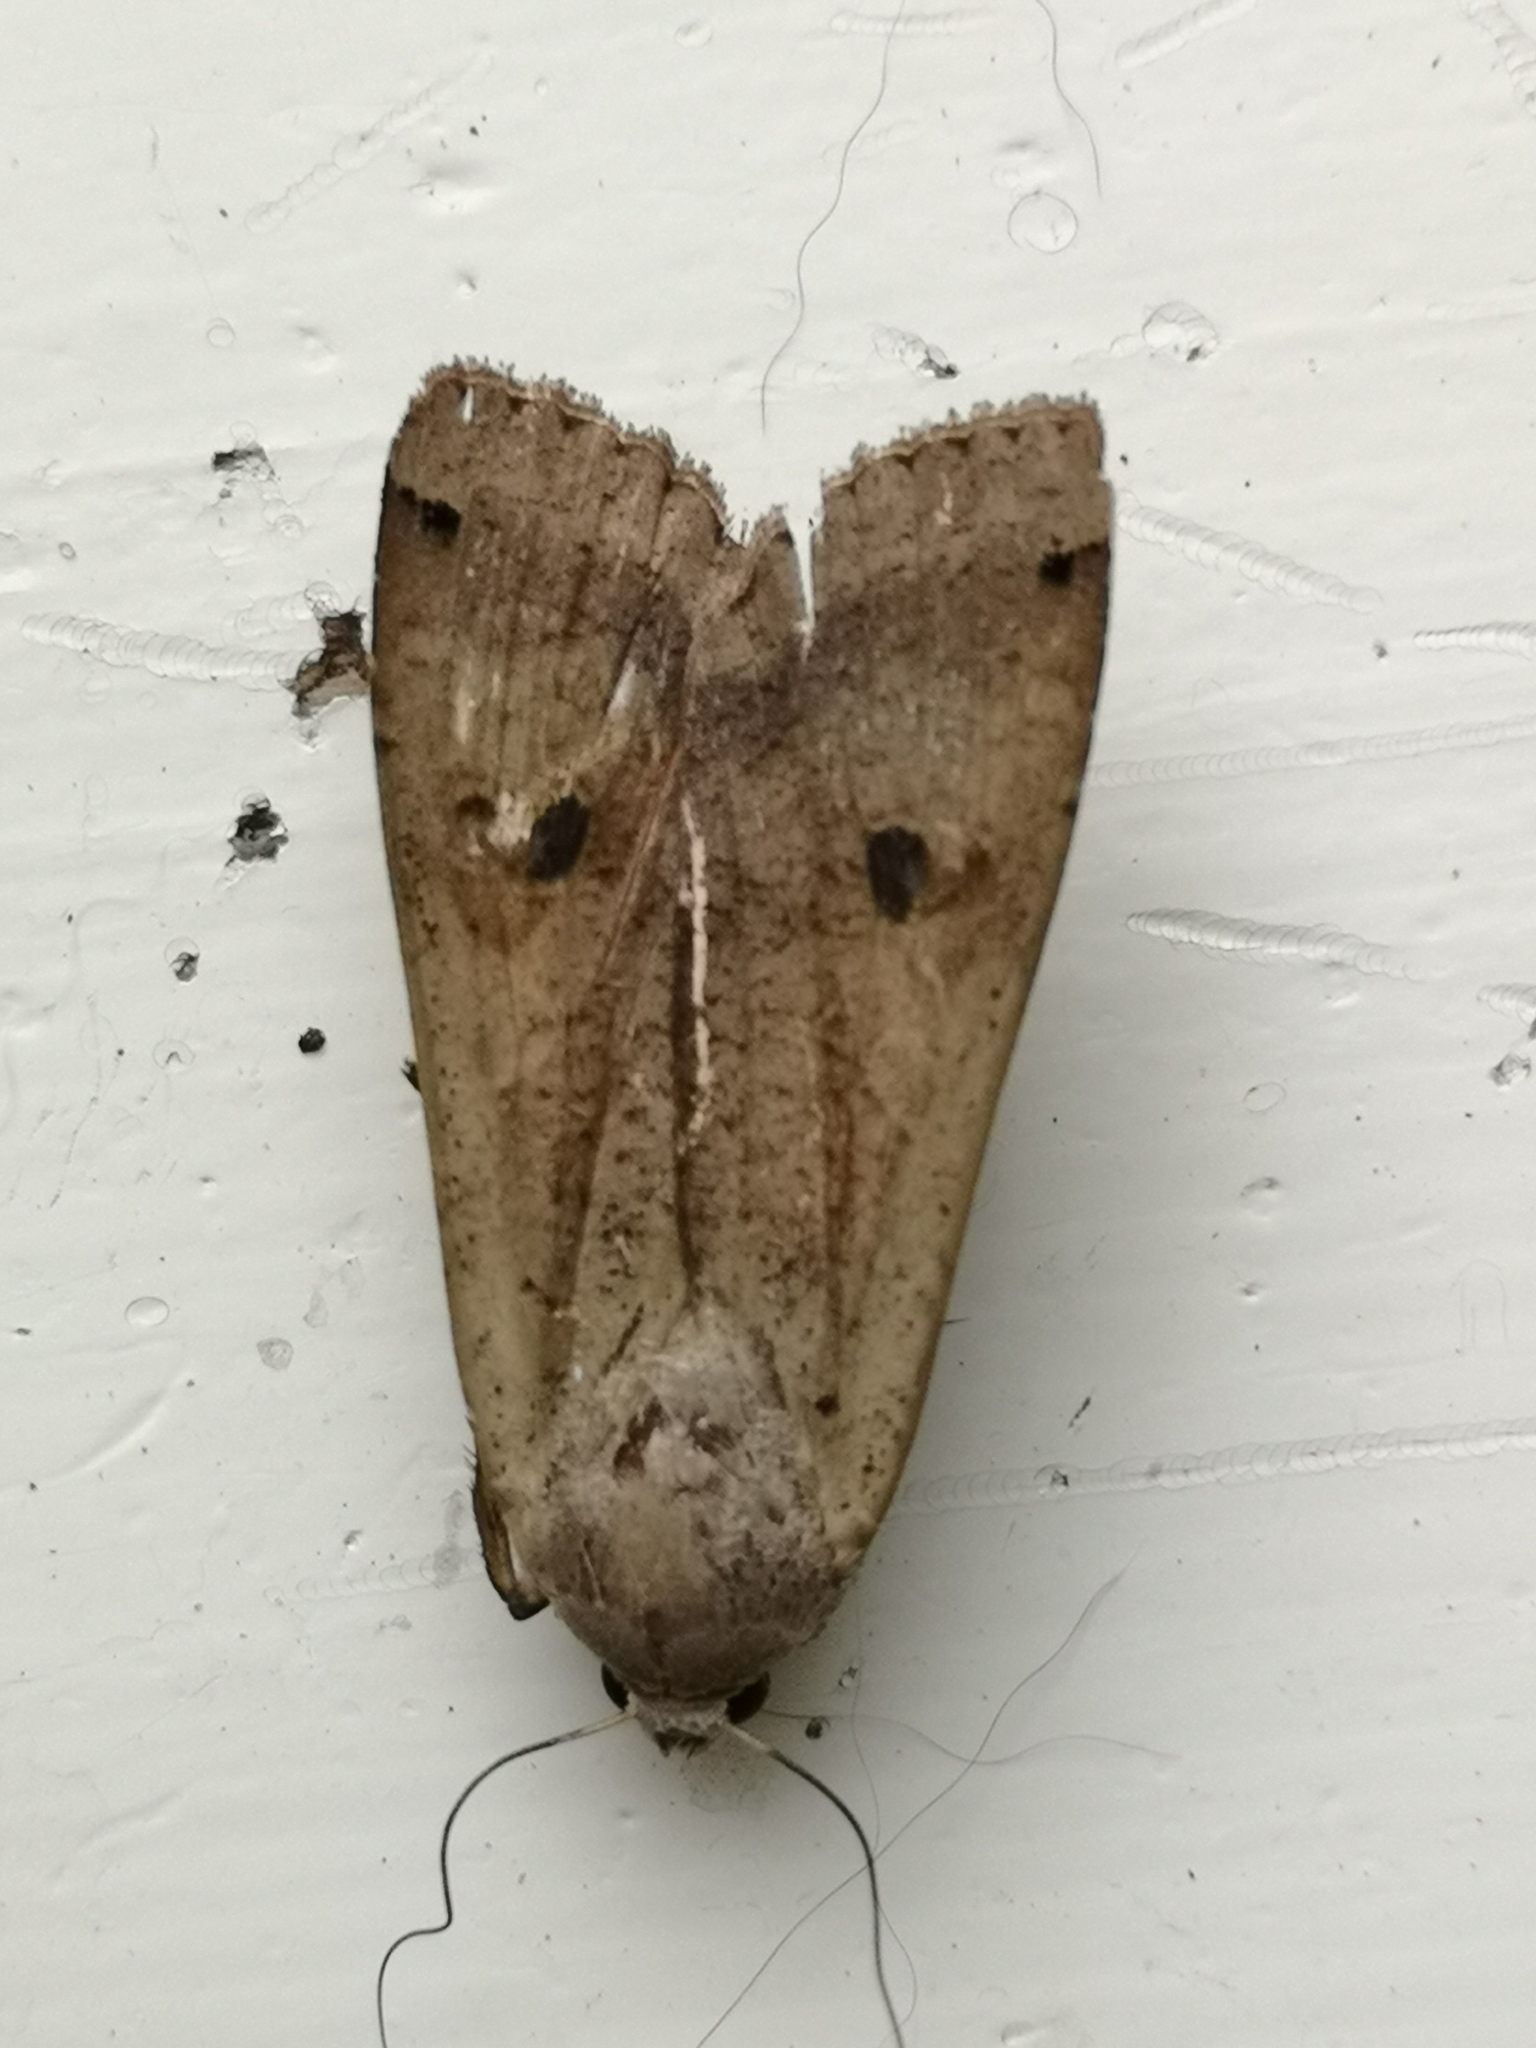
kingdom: Animalia
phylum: Arthropoda
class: Insecta
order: Lepidoptera
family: Noctuidae
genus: Noctua
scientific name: Noctua pronuba
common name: Large yellow underwing
